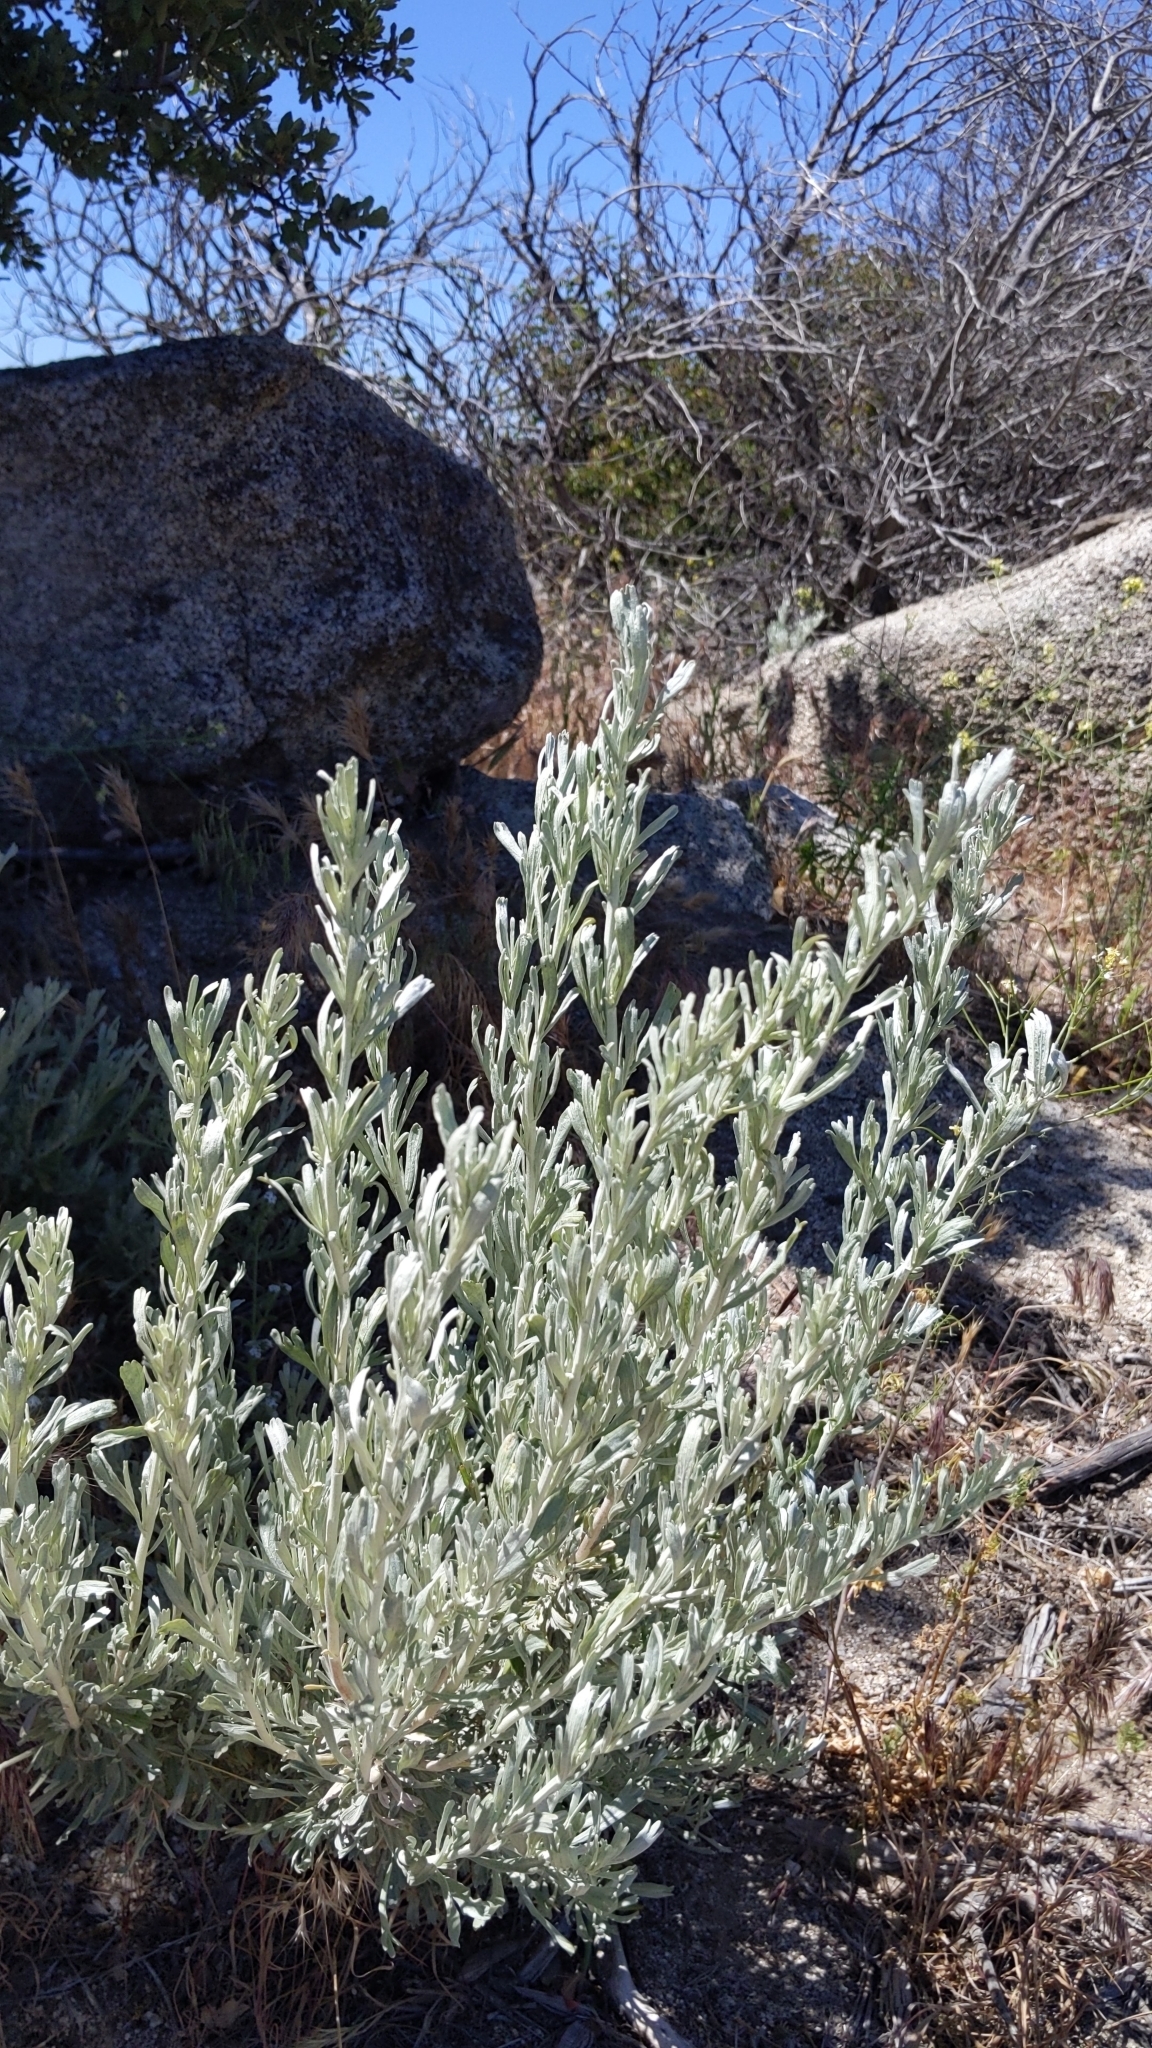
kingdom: Plantae
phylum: Tracheophyta
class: Magnoliopsida
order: Asterales
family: Asteraceae
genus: Artemisia
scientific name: Artemisia tridentata
